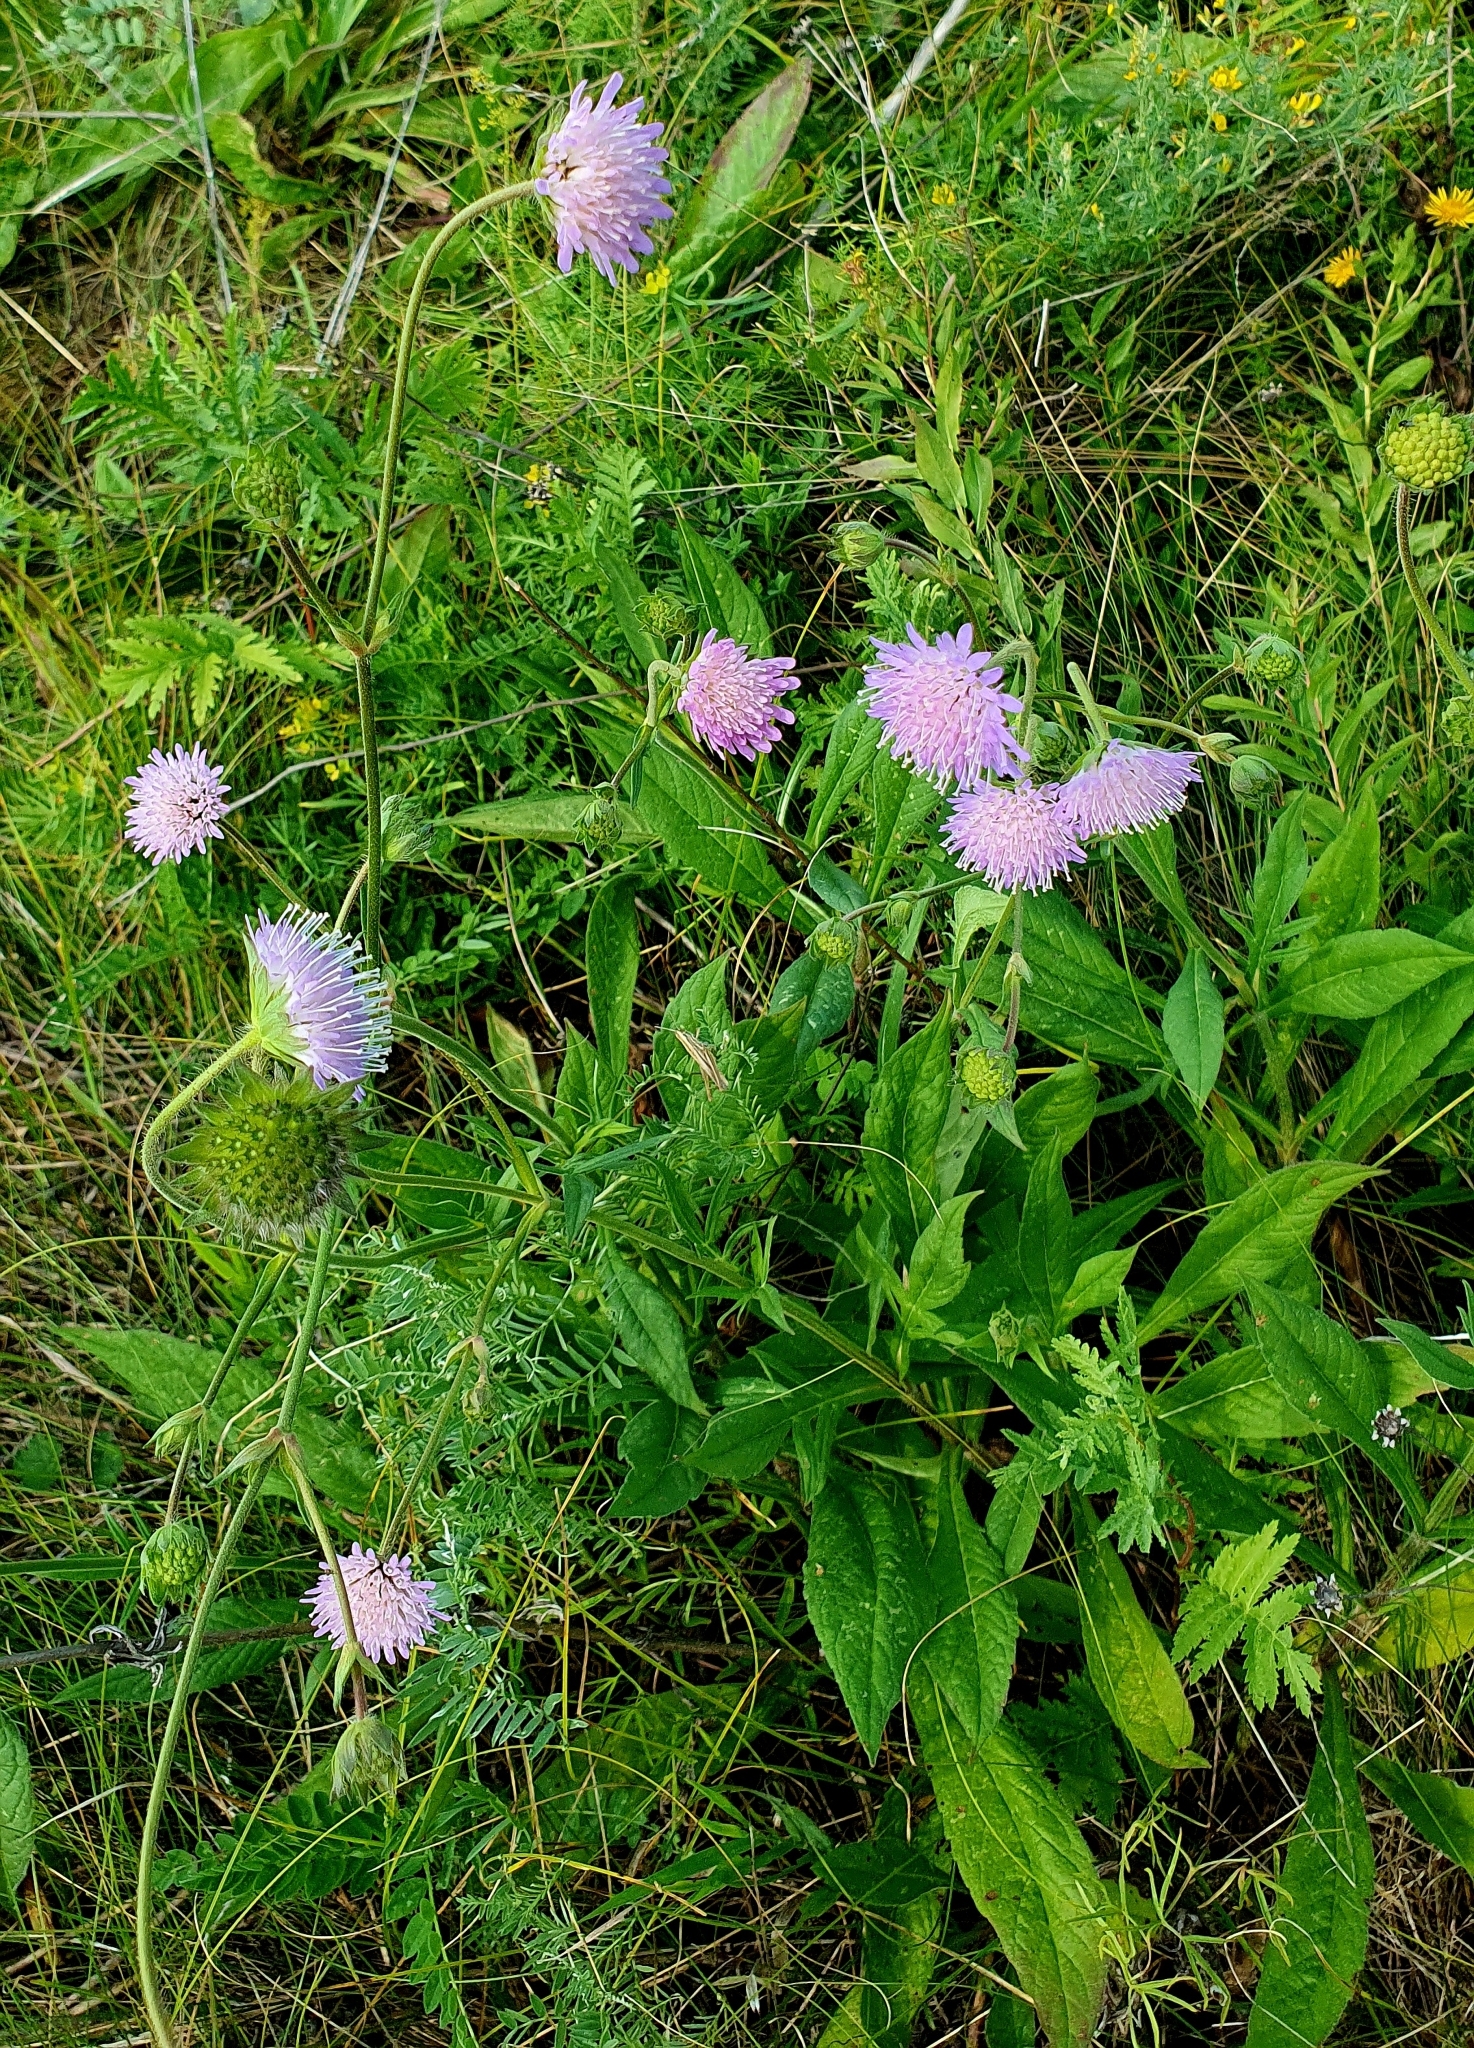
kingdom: Plantae
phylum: Tracheophyta
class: Magnoliopsida
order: Dipsacales
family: Caprifoliaceae
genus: Knautia
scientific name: Knautia arvensis
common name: Field scabiosa
